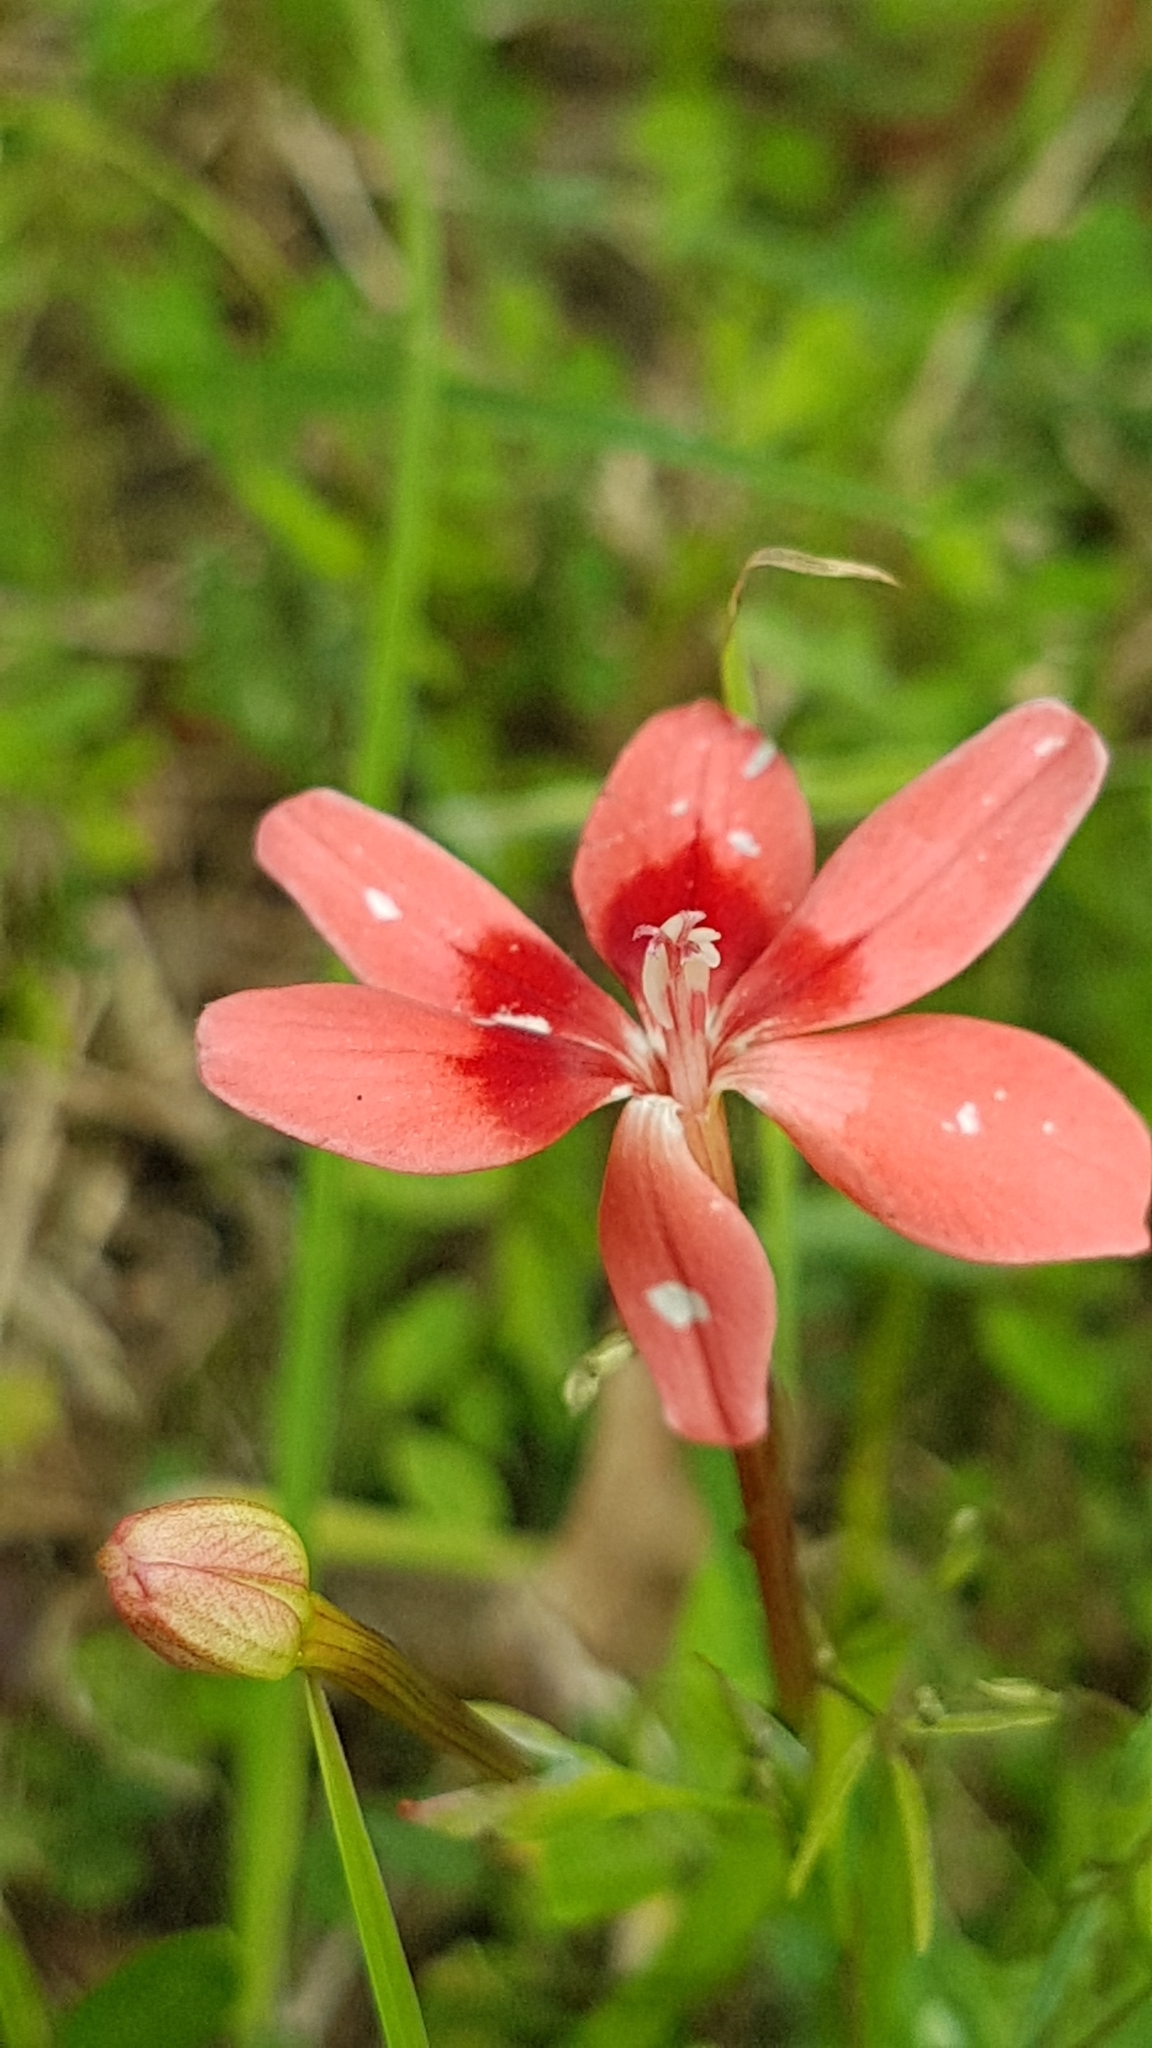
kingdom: Plantae
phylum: Tracheophyta
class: Liliopsida
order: Asparagales
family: Iridaceae
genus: Freesia
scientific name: Freesia laxa
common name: False freesia
